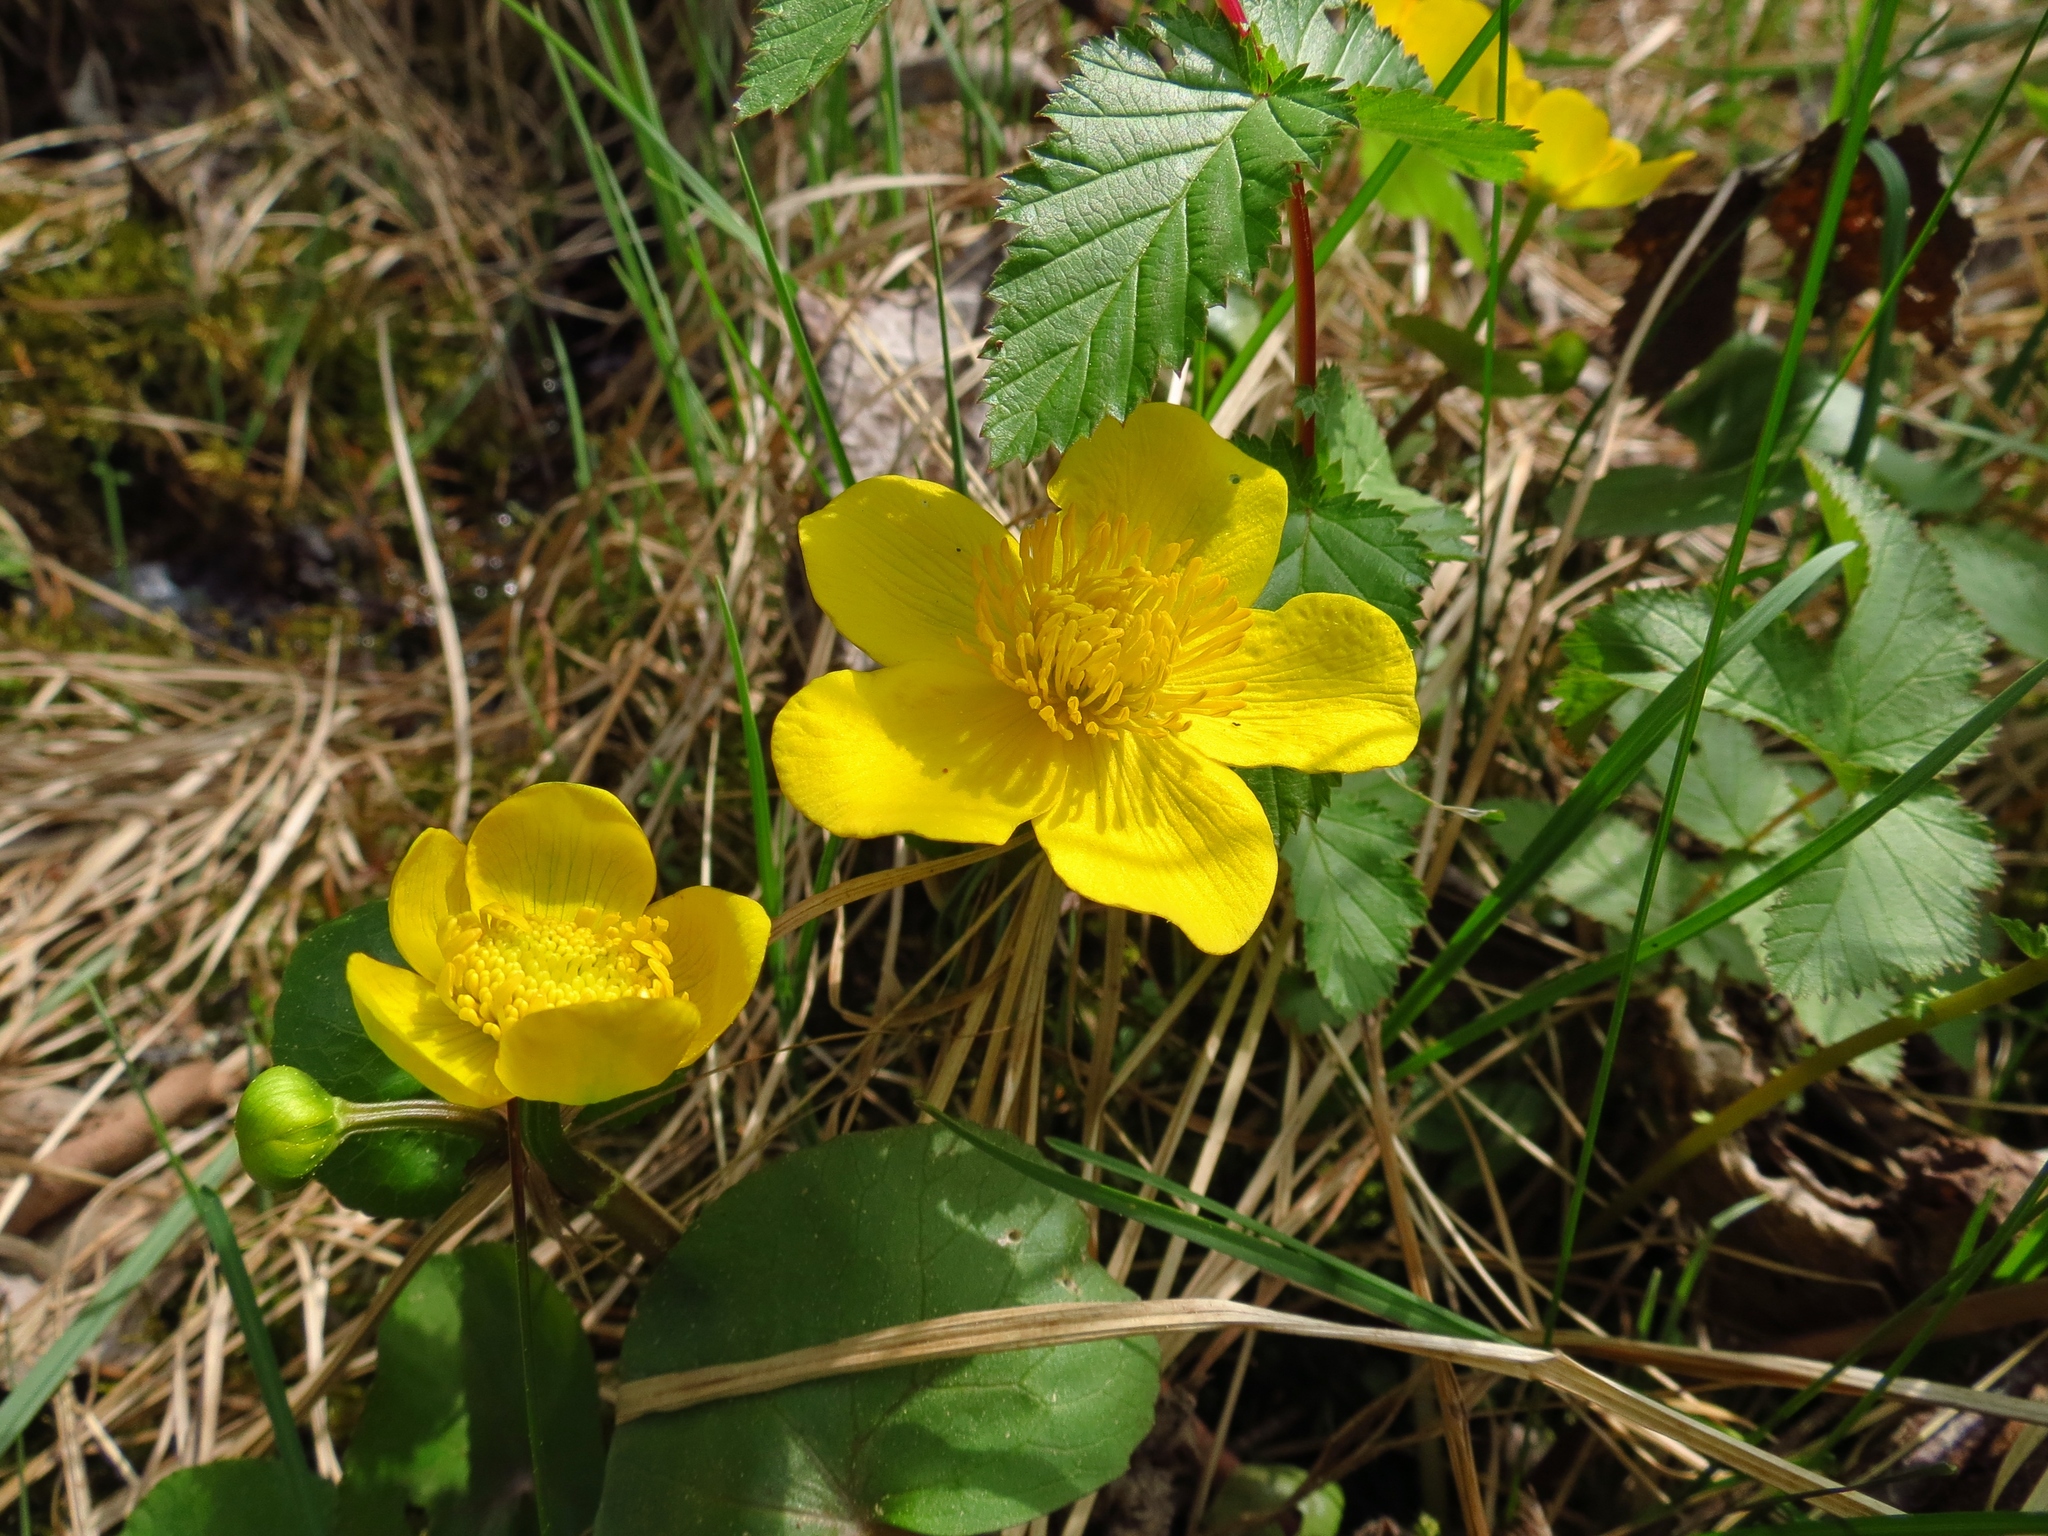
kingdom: Plantae
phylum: Tracheophyta
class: Magnoliopsida
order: Ranunculales
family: Ranunculaceae
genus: Caltha
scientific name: Caltha palustris
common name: Marsh marigold
